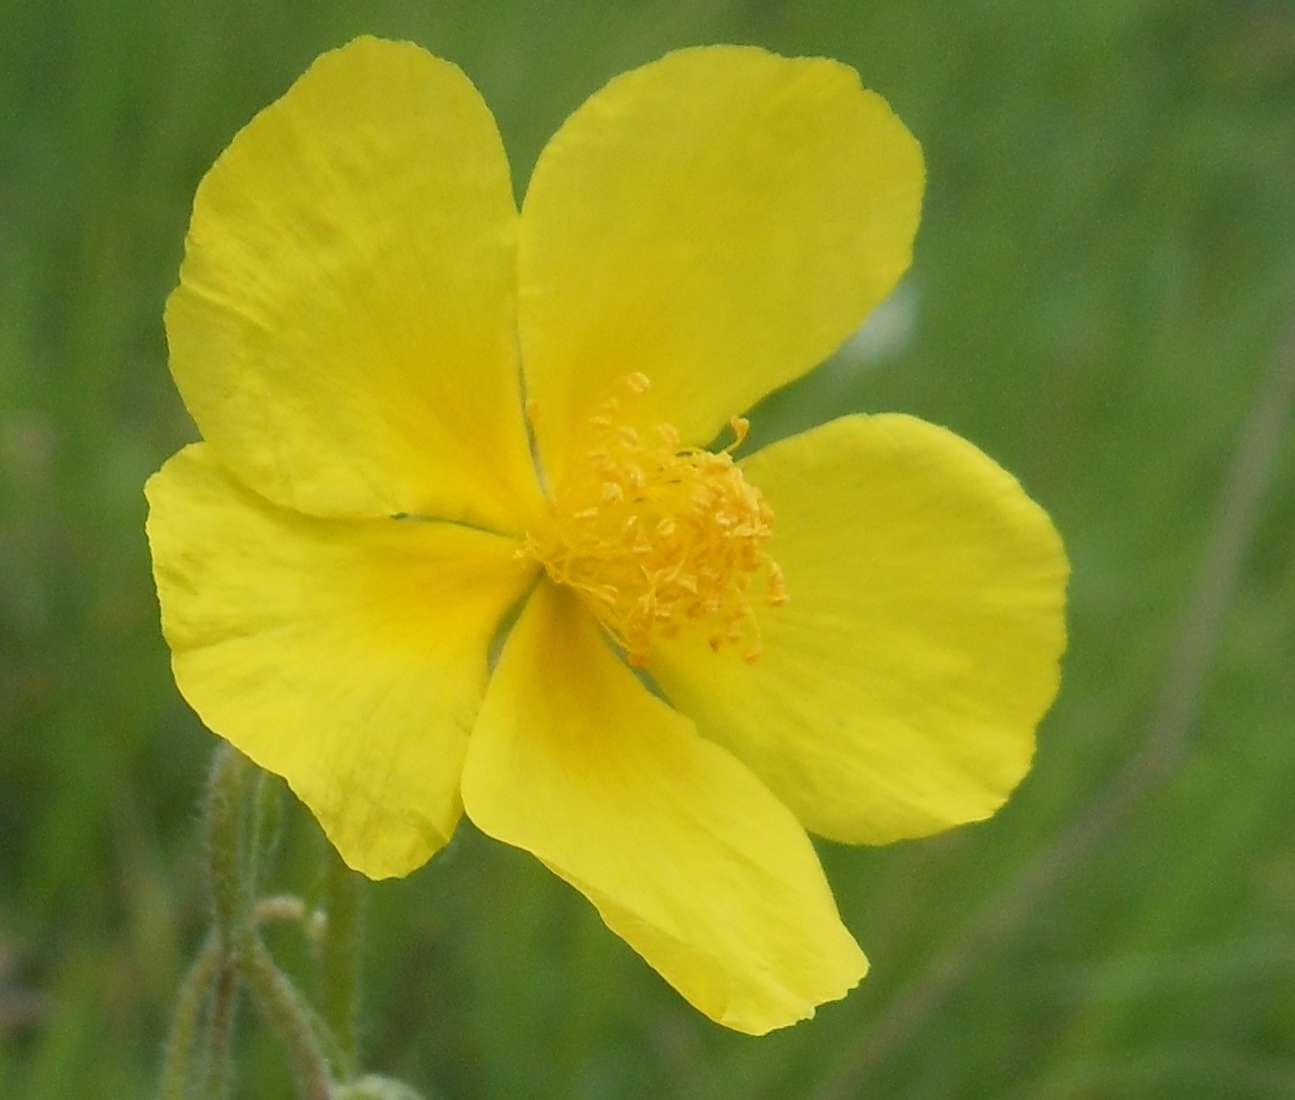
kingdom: Plantae
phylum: Tracheophyta
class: Magnoliopsida
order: Malvales
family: Cistaceae
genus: Helianthemum
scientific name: Helianthemum nummularium
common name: Common rock-rose
